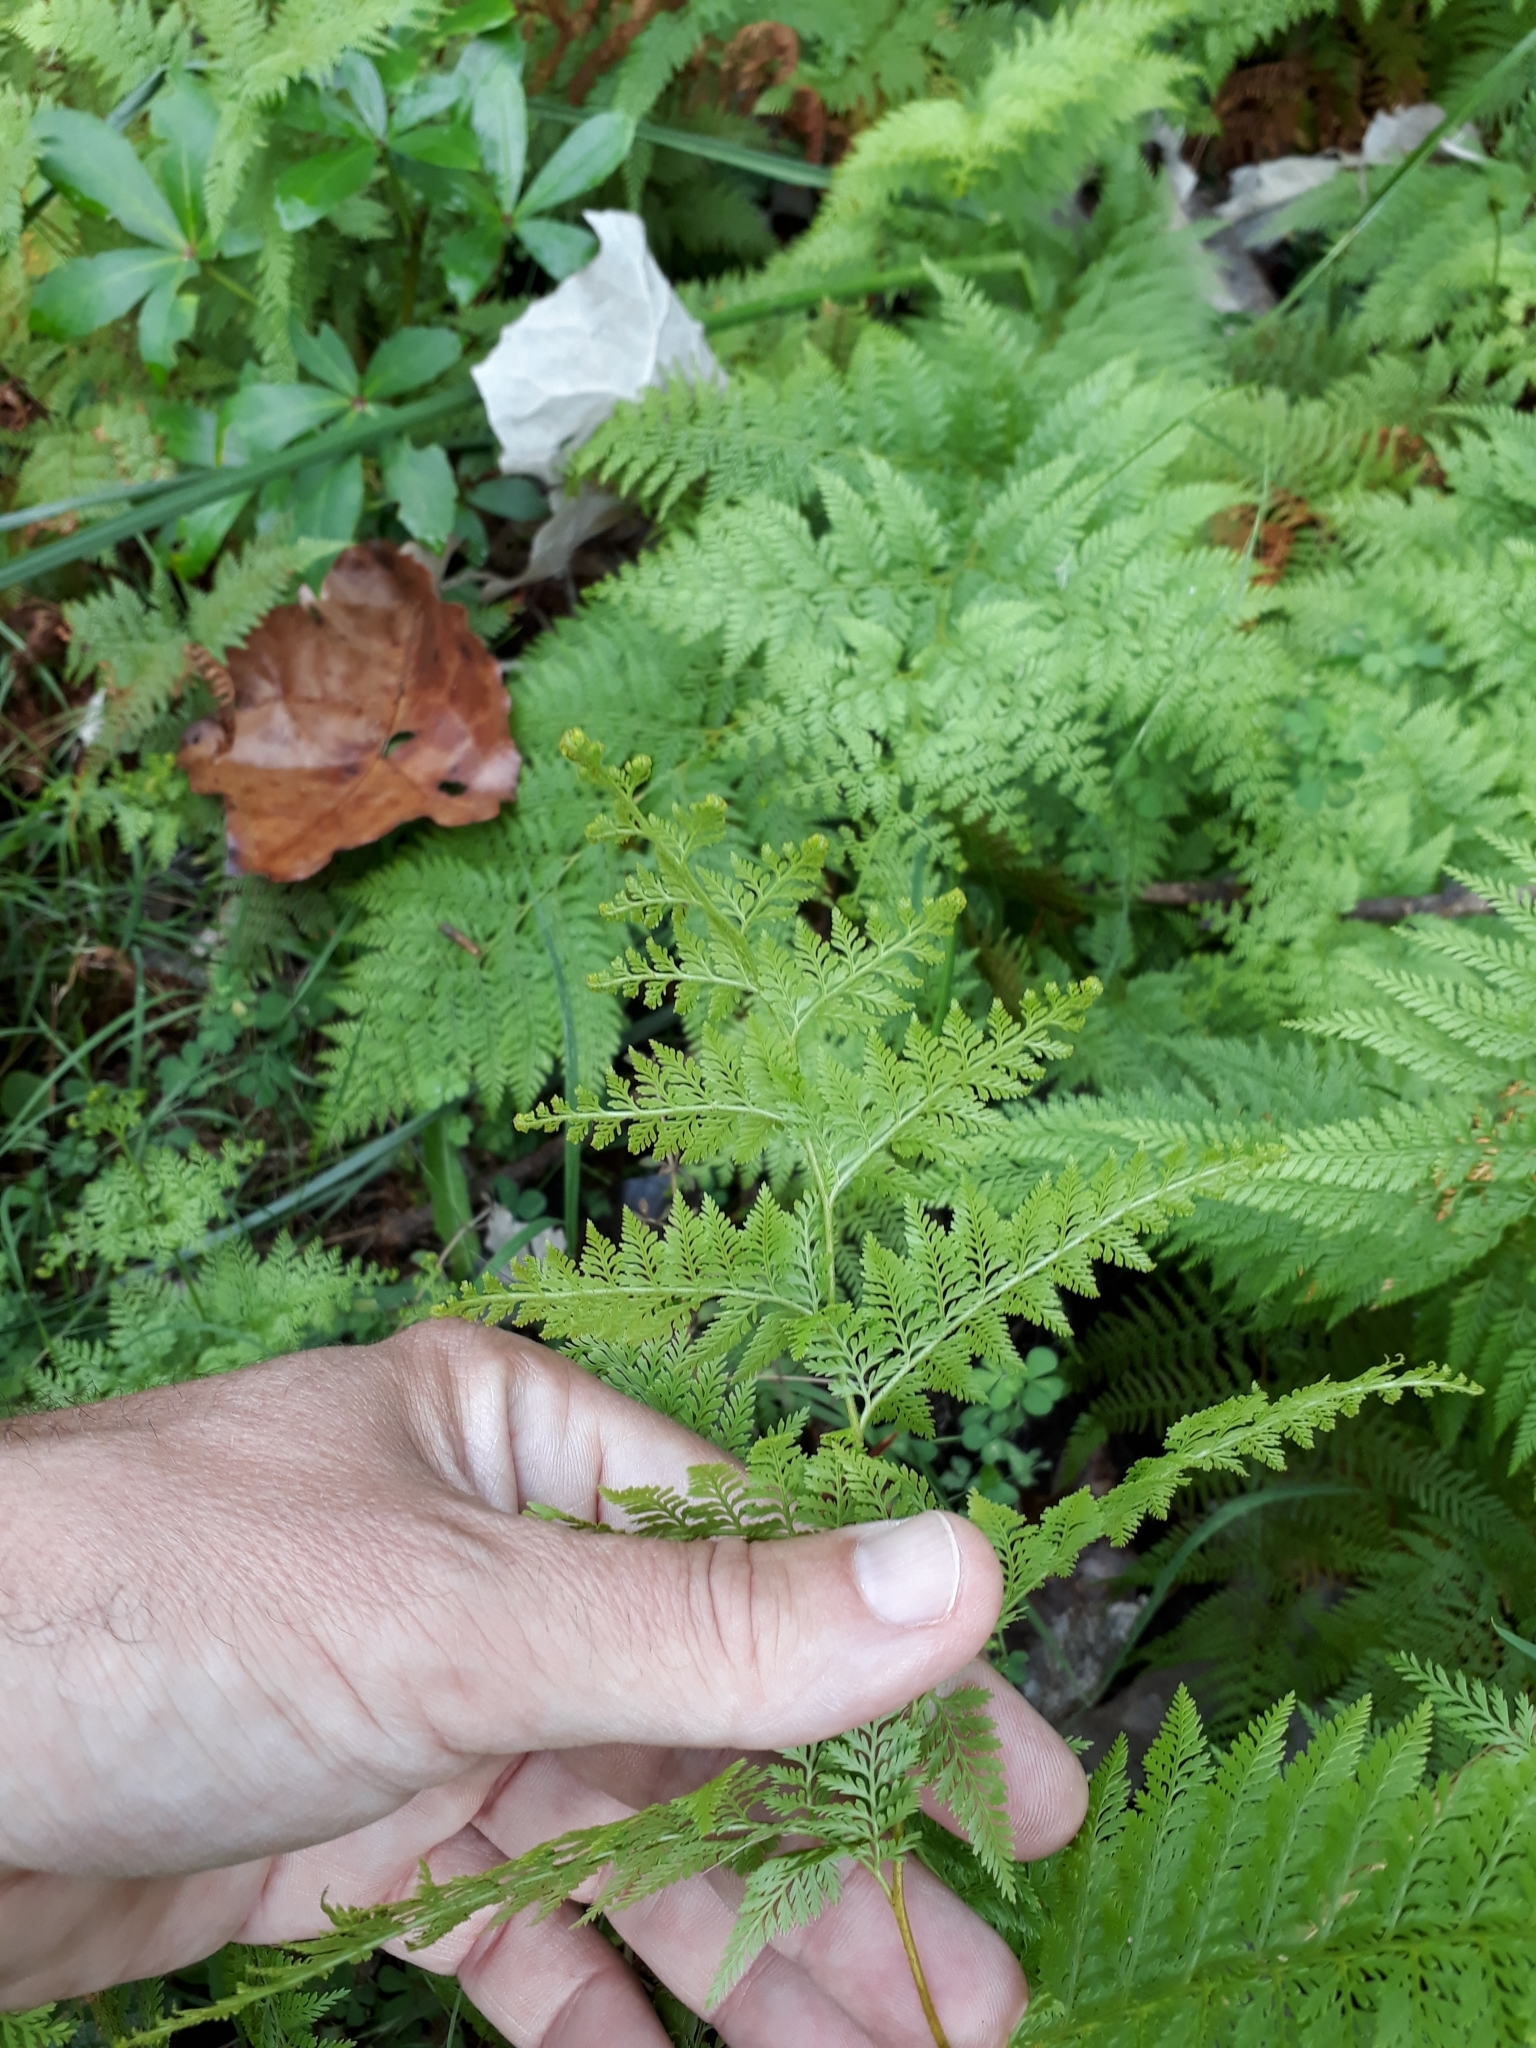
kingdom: Plantae
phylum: Tracheophyta
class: Polypodiopsida
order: Polypodiales
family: Dennstaedtiaceae
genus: Paesia
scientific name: Paesia scaberula
